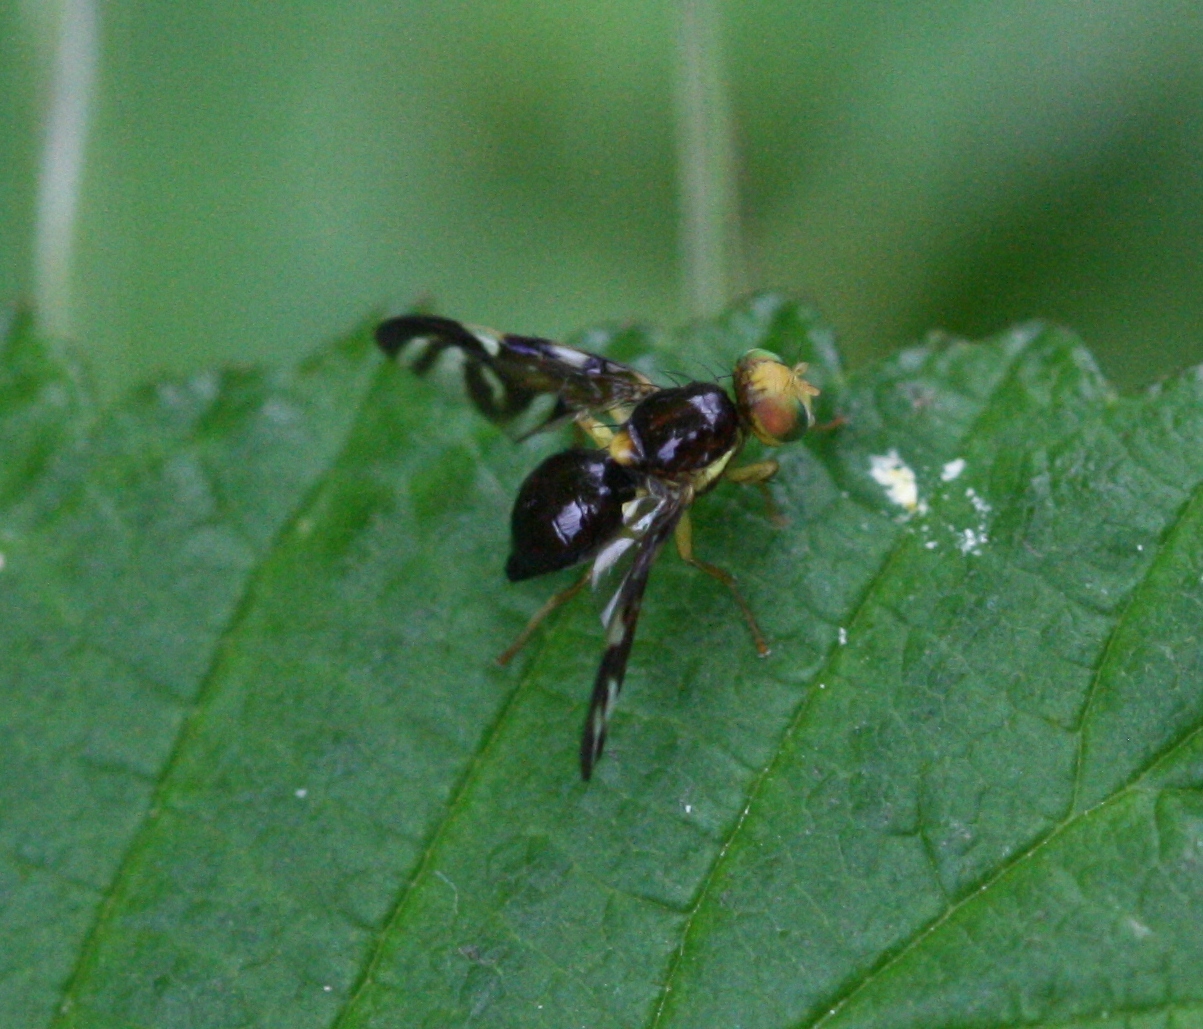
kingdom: Animalia
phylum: Arthropoda
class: Insecta
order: Diptera
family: Tephritidae
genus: Euleia
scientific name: Euleia heraclei
